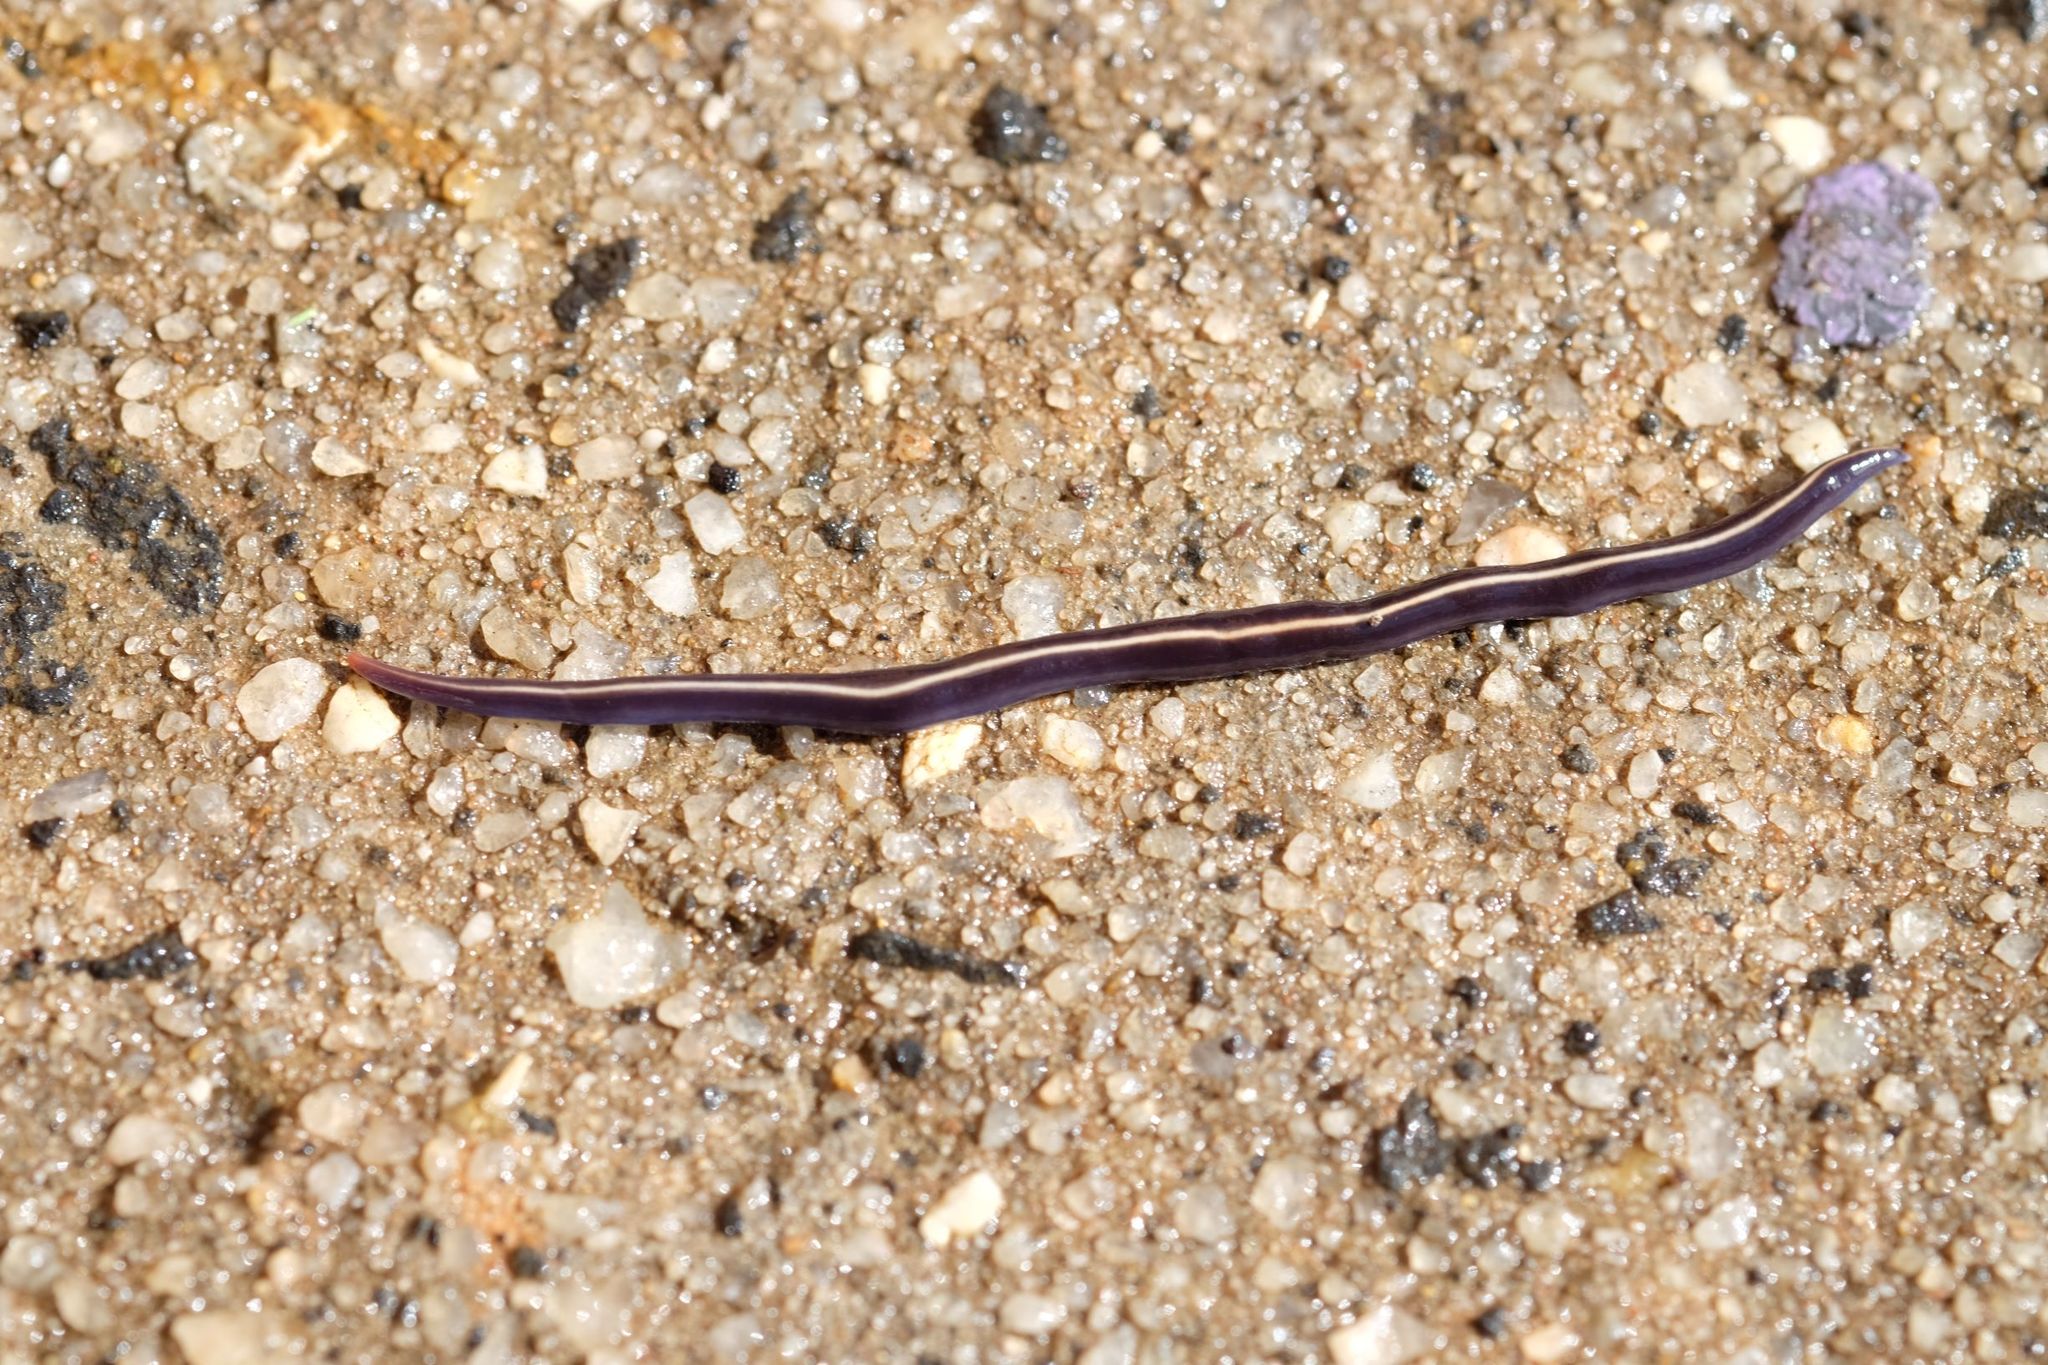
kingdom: Animalia
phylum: Platyhelminthes
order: Tricladida
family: Geoplanidae
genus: Caenoplana
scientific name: Caenoplana coerulea
